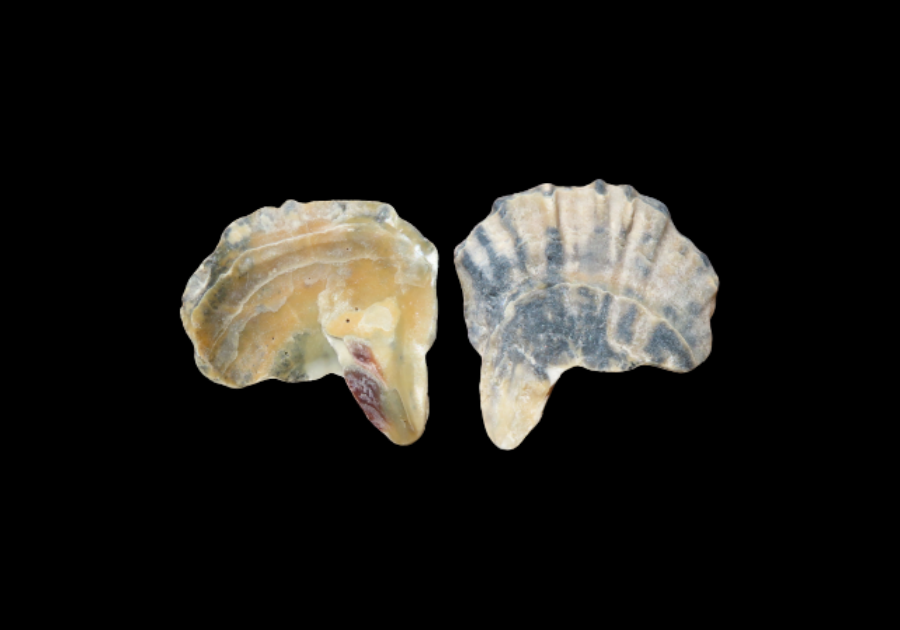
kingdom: Animalia
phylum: Mollusca
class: Bivalvia
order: Ostreida
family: Ostreidae
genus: Crassostrea
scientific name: Crassostrea virginica
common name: American oyster
